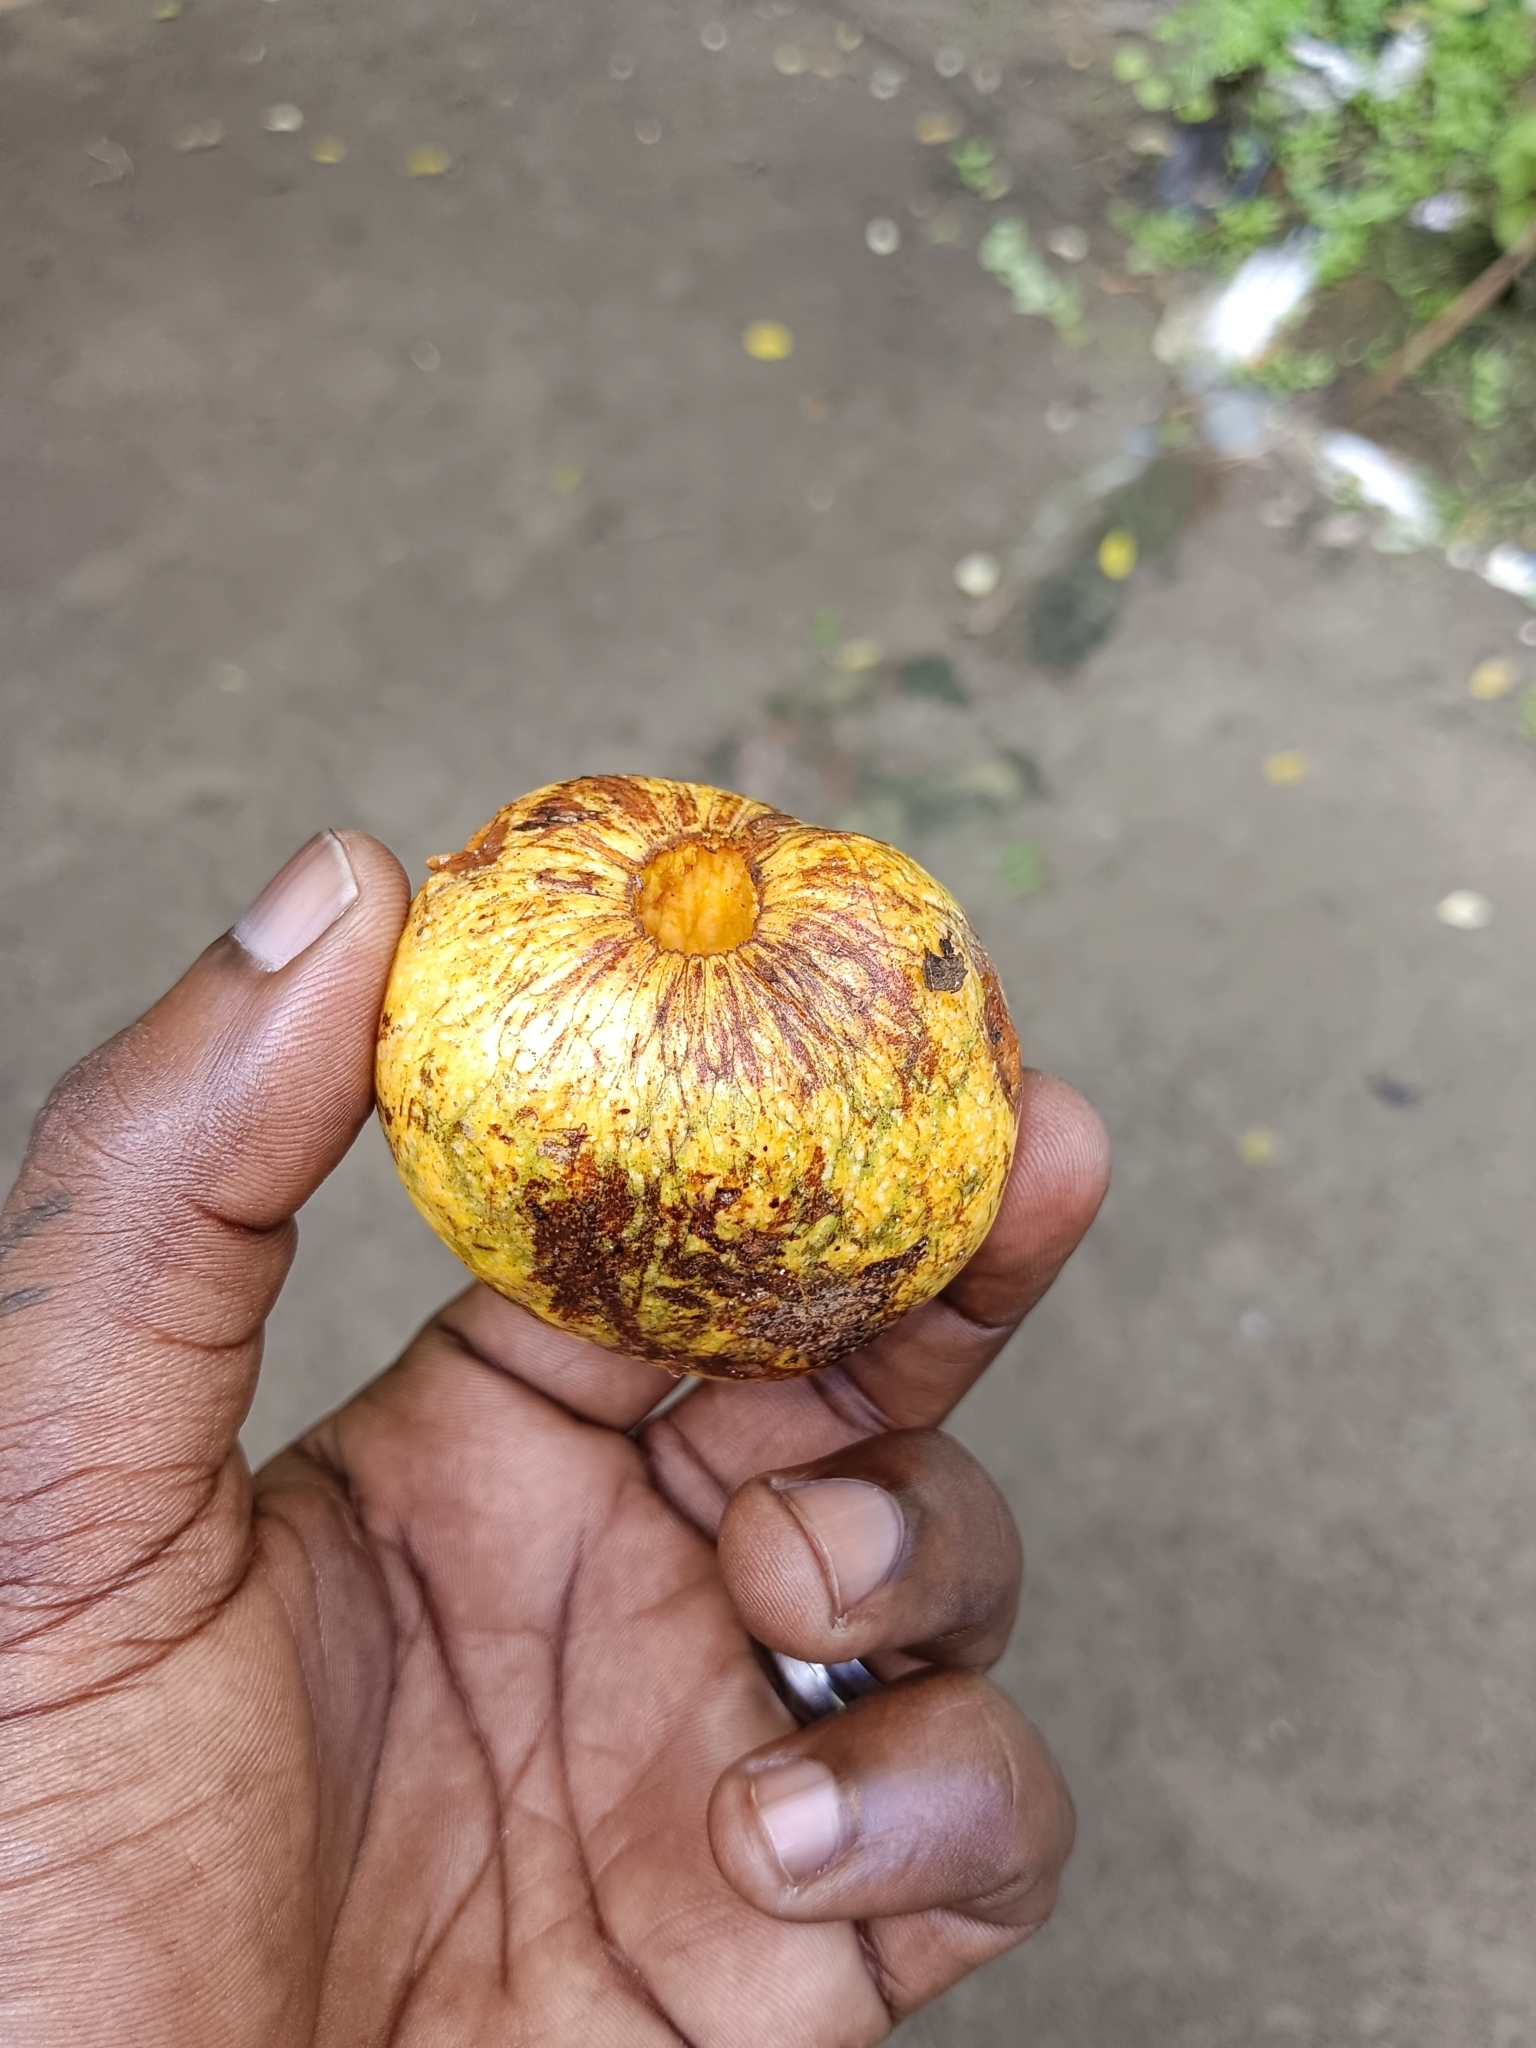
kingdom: Plantae
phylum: Tracheophyta
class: Magnoliopsida
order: Magnoliales
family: Annonaceae
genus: Annona
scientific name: Annona glabra
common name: Monkey apple
